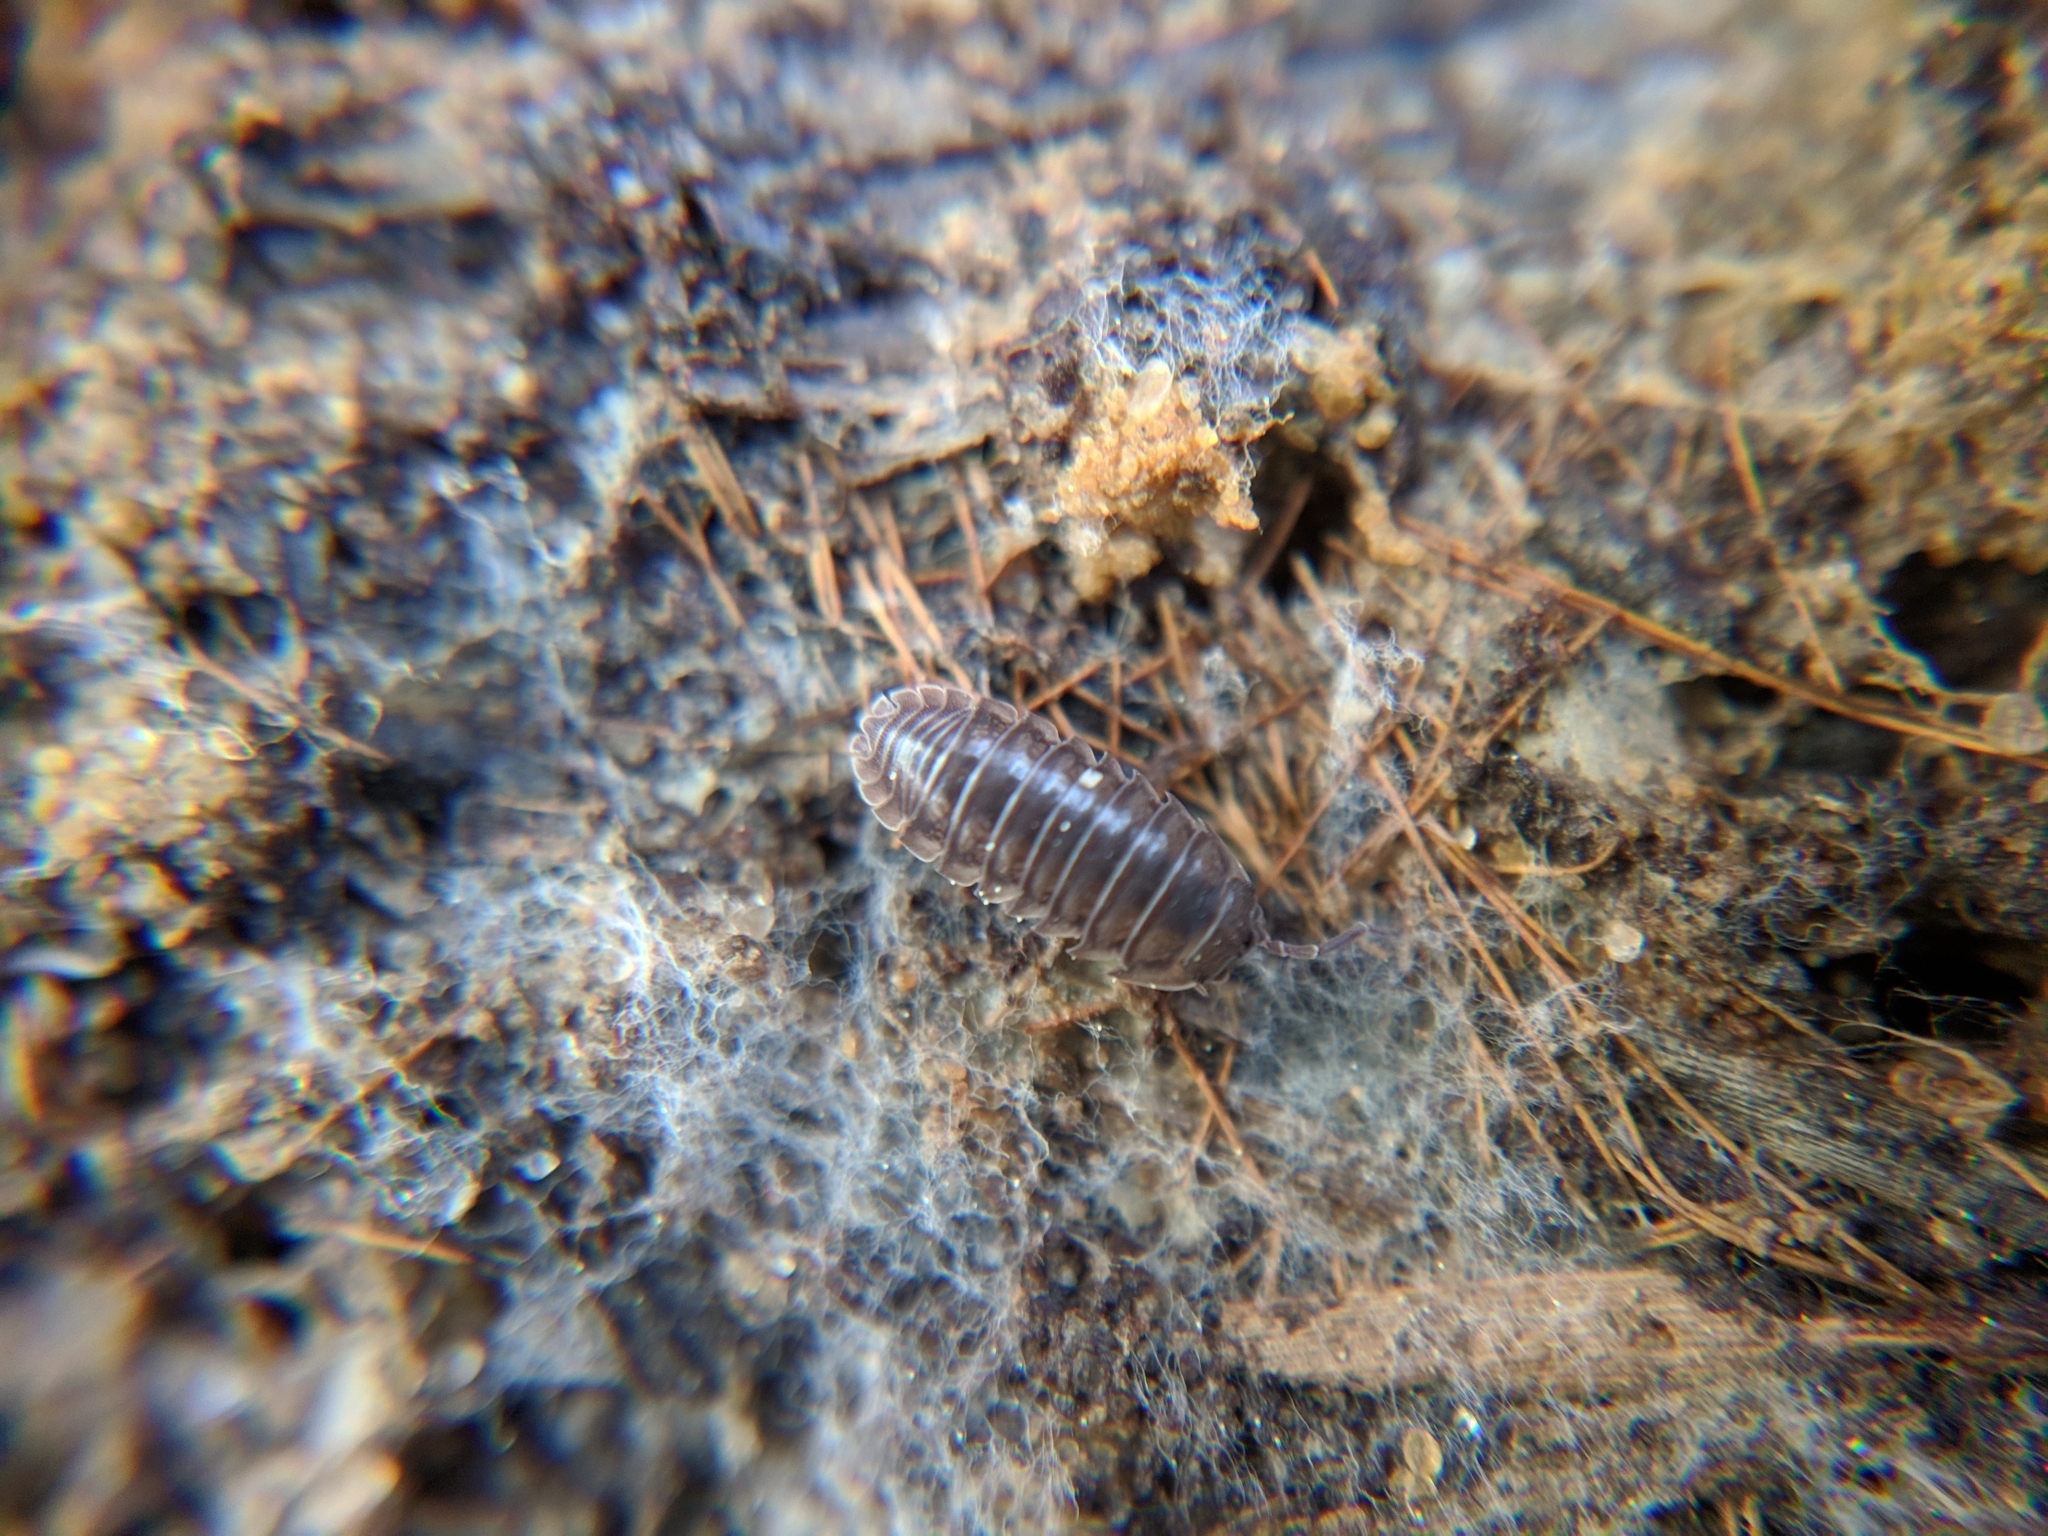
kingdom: Animalia
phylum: Arthropoda
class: Malacostraca
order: Isopoda
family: Armadillidiidae
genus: Armadillidium
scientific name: Armadillidium nasatum
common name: Isopod
